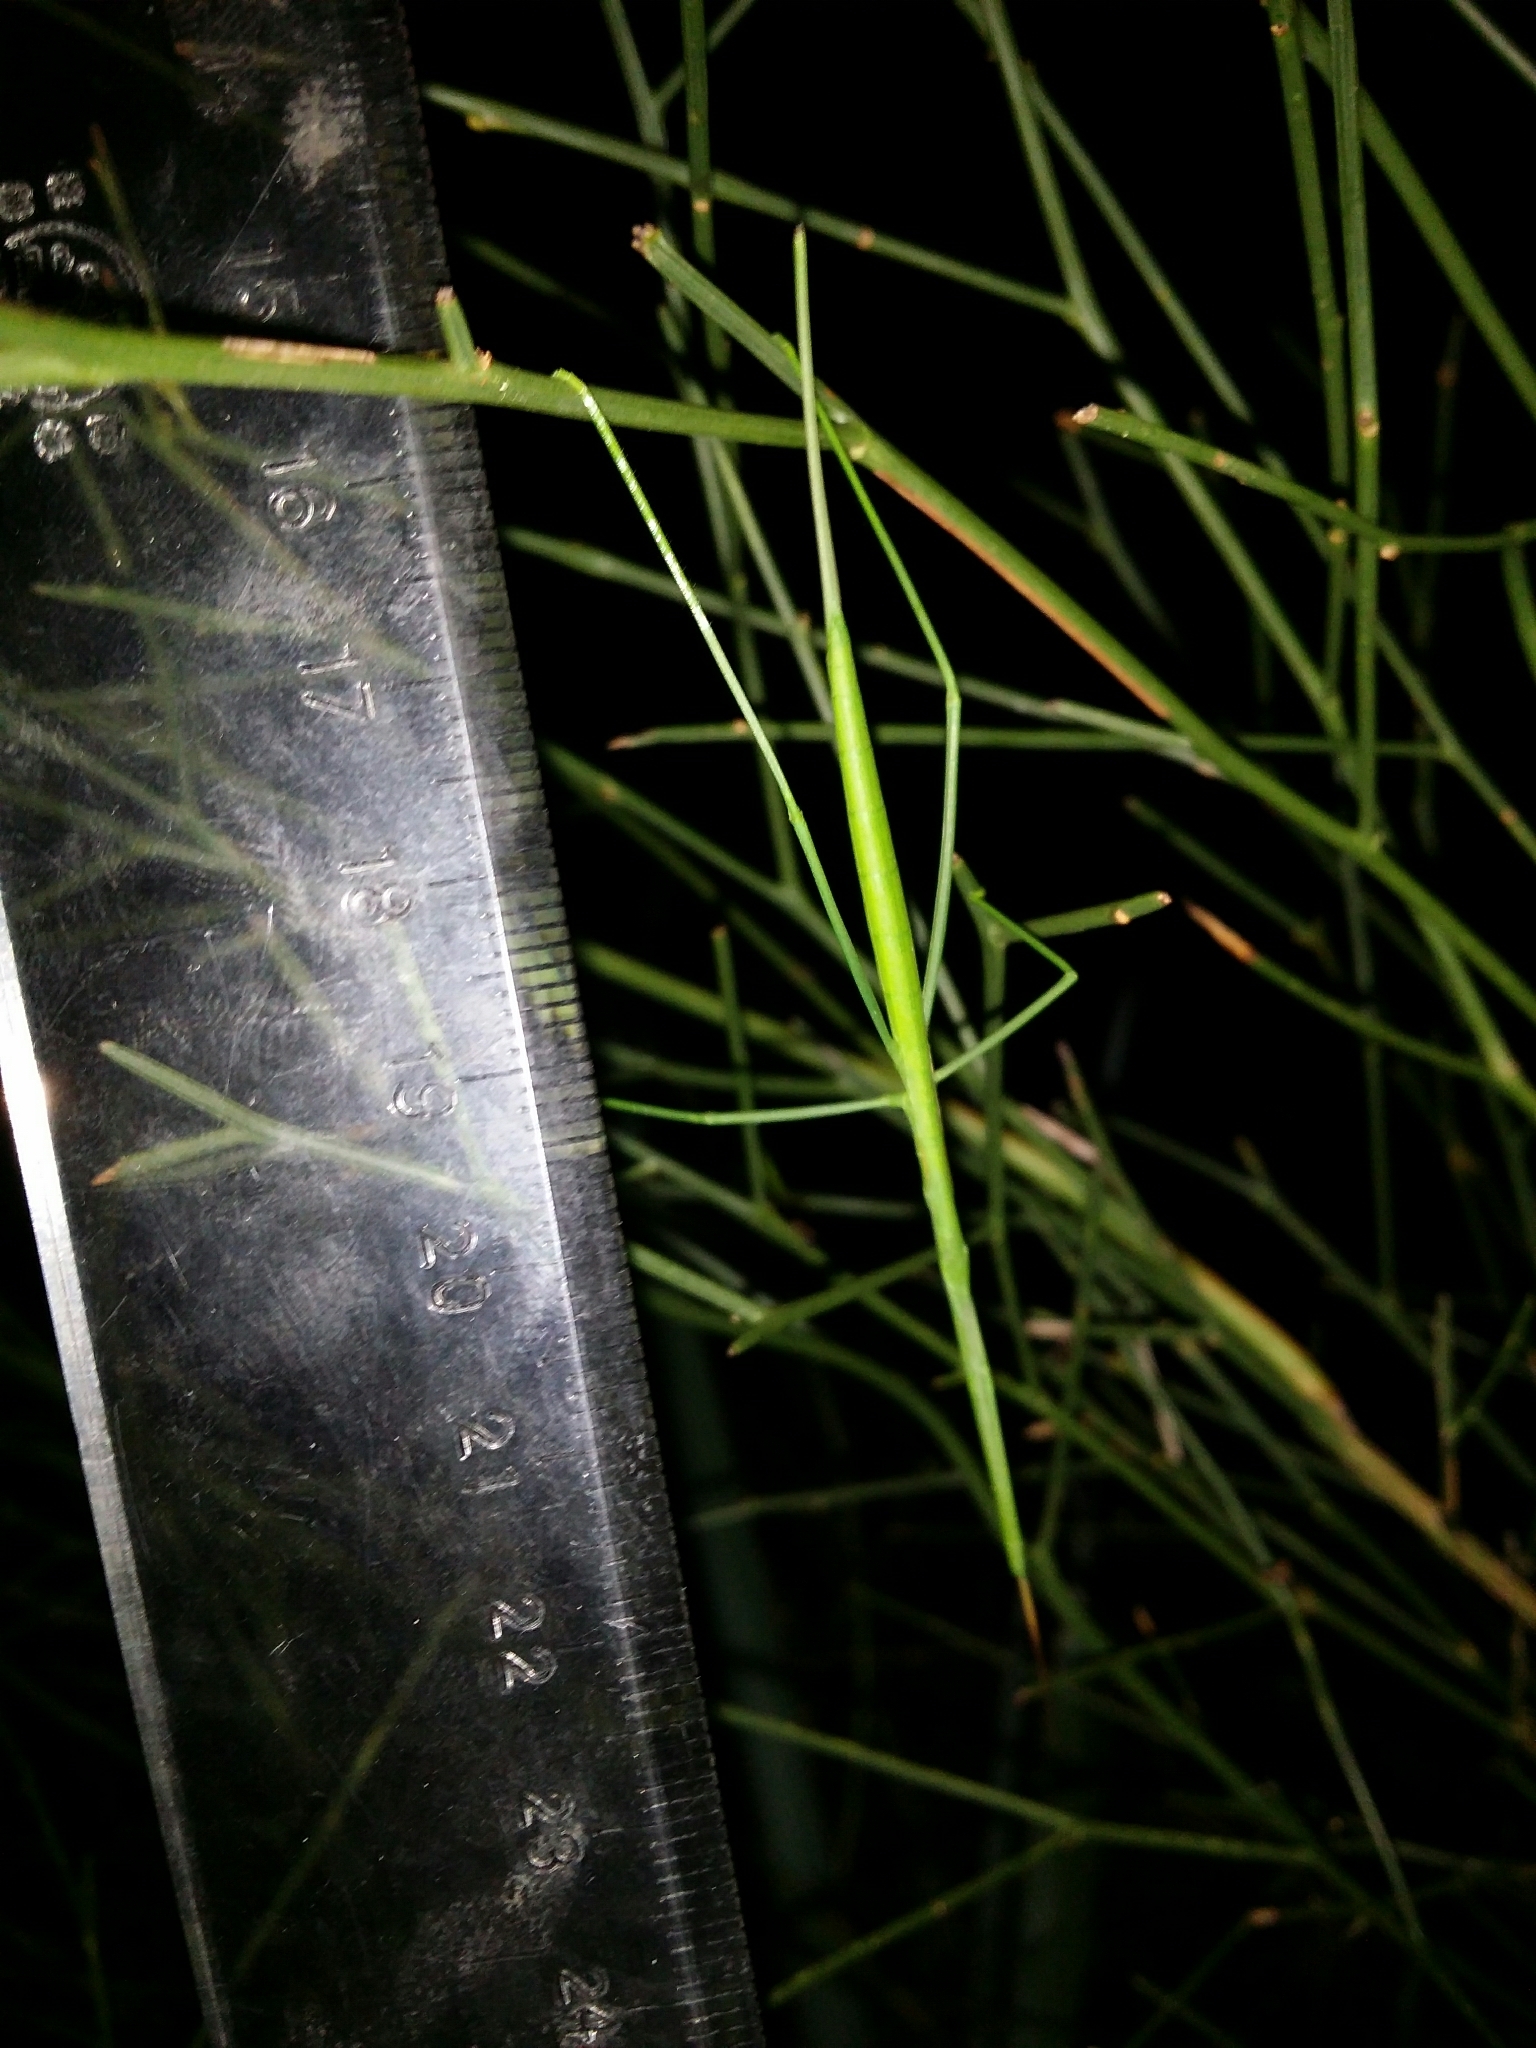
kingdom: Animalia
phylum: Arthropoda
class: Insecta
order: Orthoptera
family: Tettigoniidae
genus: Phasmodes
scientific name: Phasmodes ranatriformis
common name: King's park stick katydid
